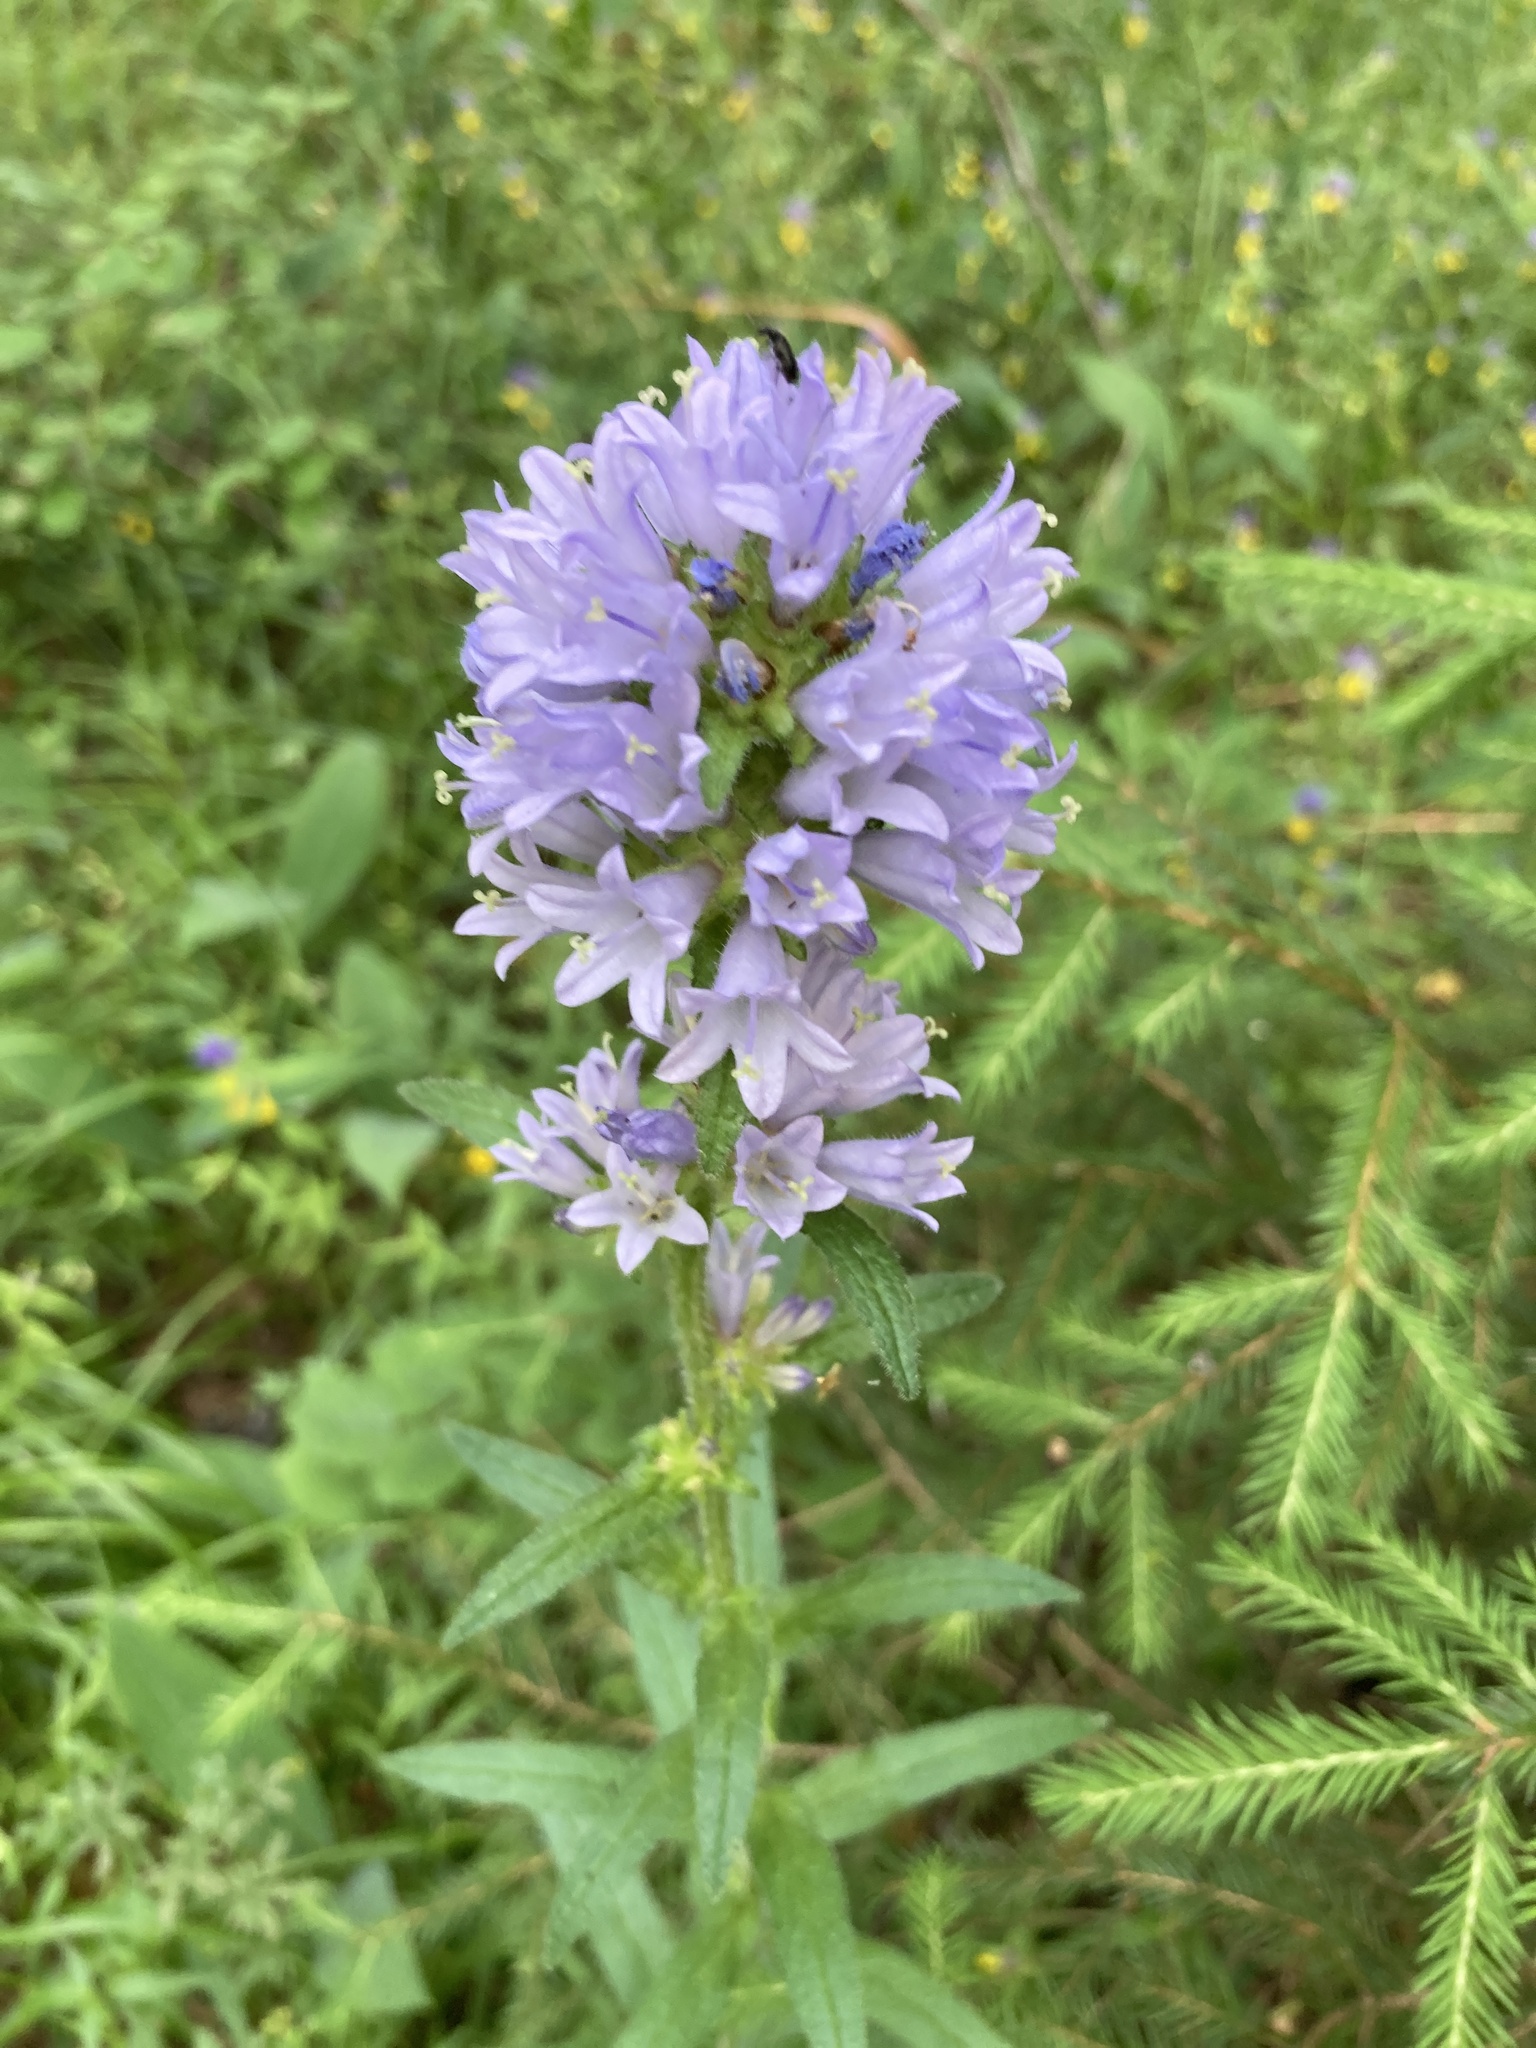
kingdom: Plantae
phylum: Tracheophyta
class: Magnoliopsida
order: Asterales
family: Campanulaceae
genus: Campanula
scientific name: Campanula cervicaria
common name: Bristly bellflower
